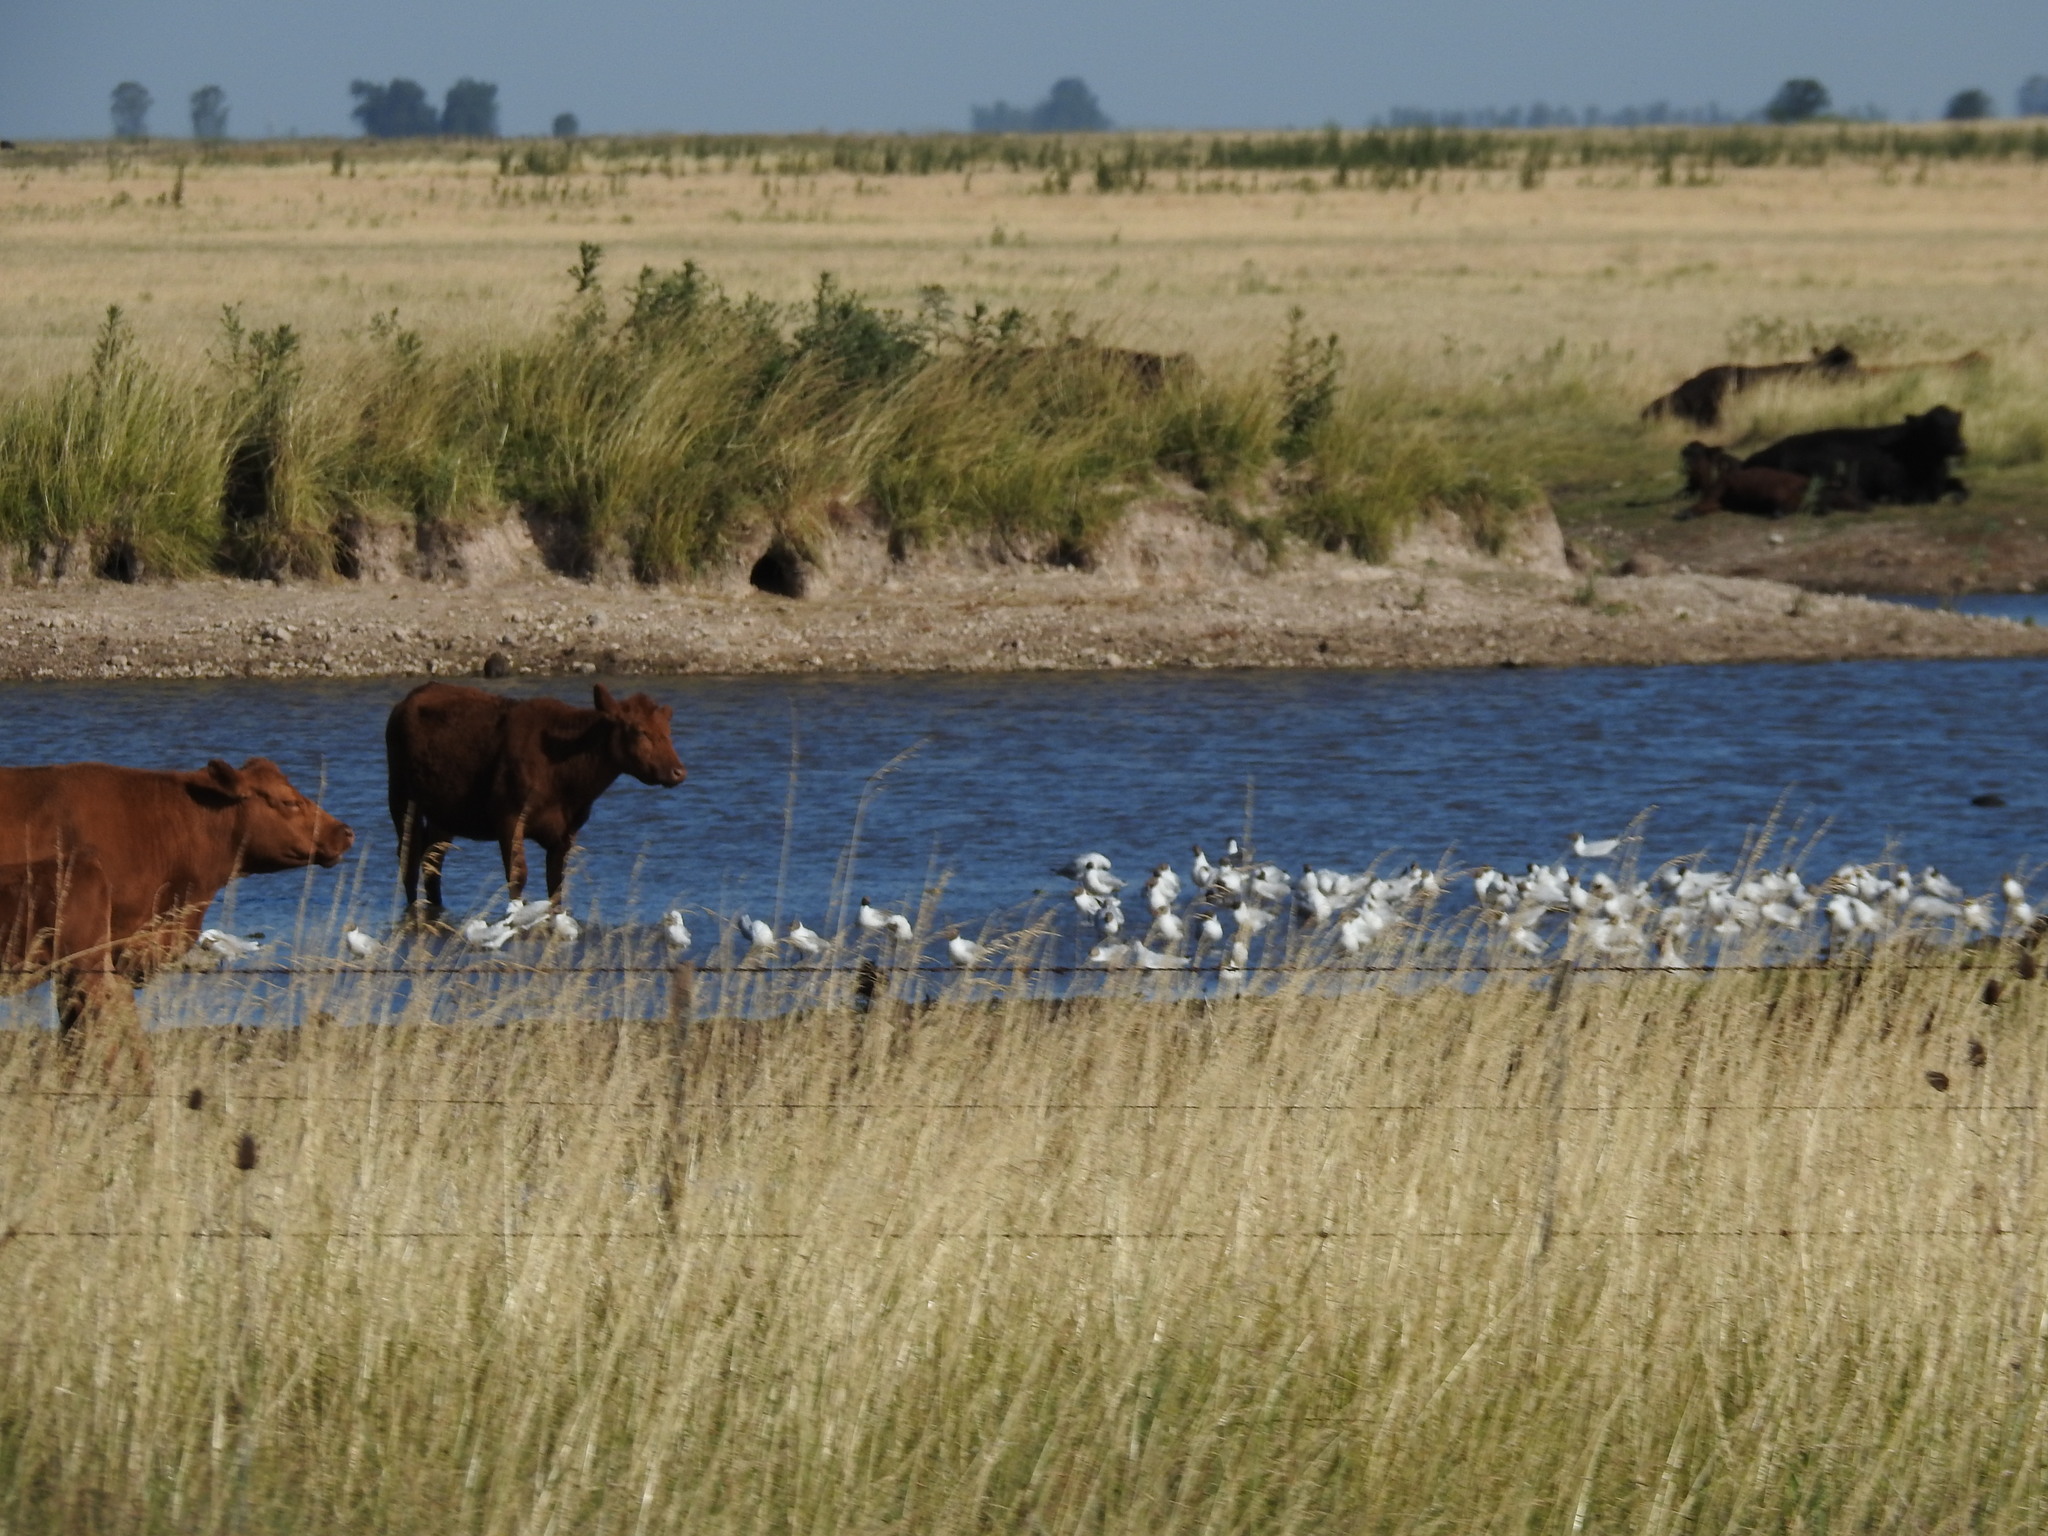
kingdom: Animalia
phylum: Chordata
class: Aves
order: Charadriiformes
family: Laridae
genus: Chroicocephalus
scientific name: Chroicocephalus maculipennis
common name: Brown-hooded gull
